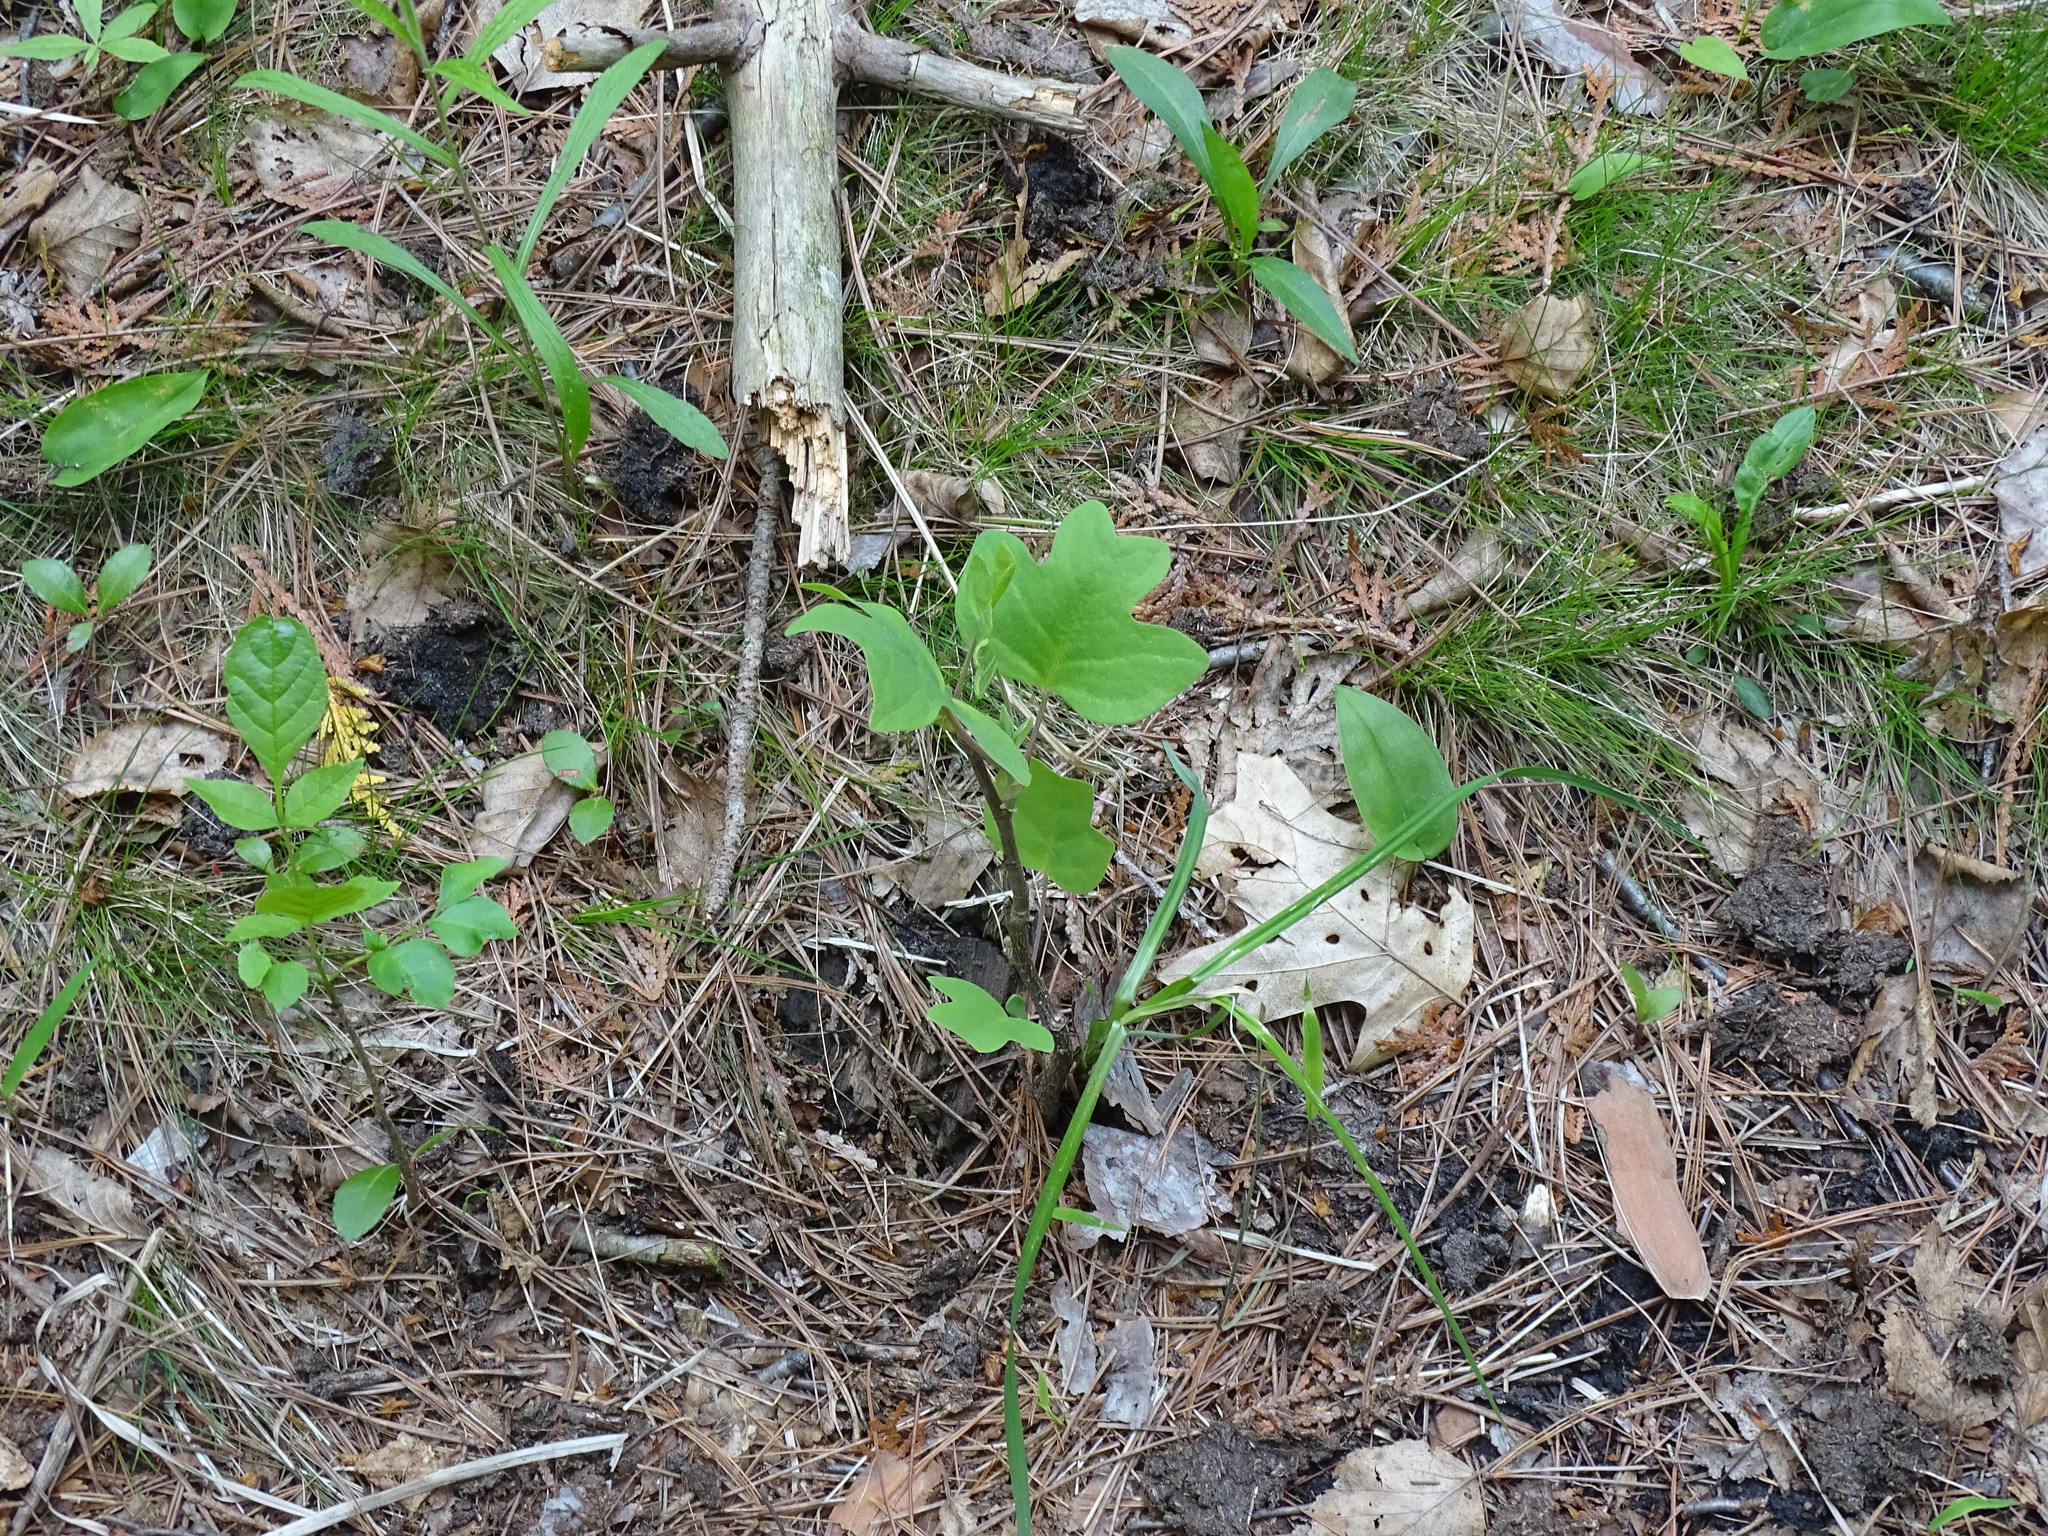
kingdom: Plantae
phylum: Tracheophyta
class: Magnoliopsida
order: Magnoliales
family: Magnoliaceae
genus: Liriodendron
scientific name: Liriodendron tulipifera
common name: Tulip tree
